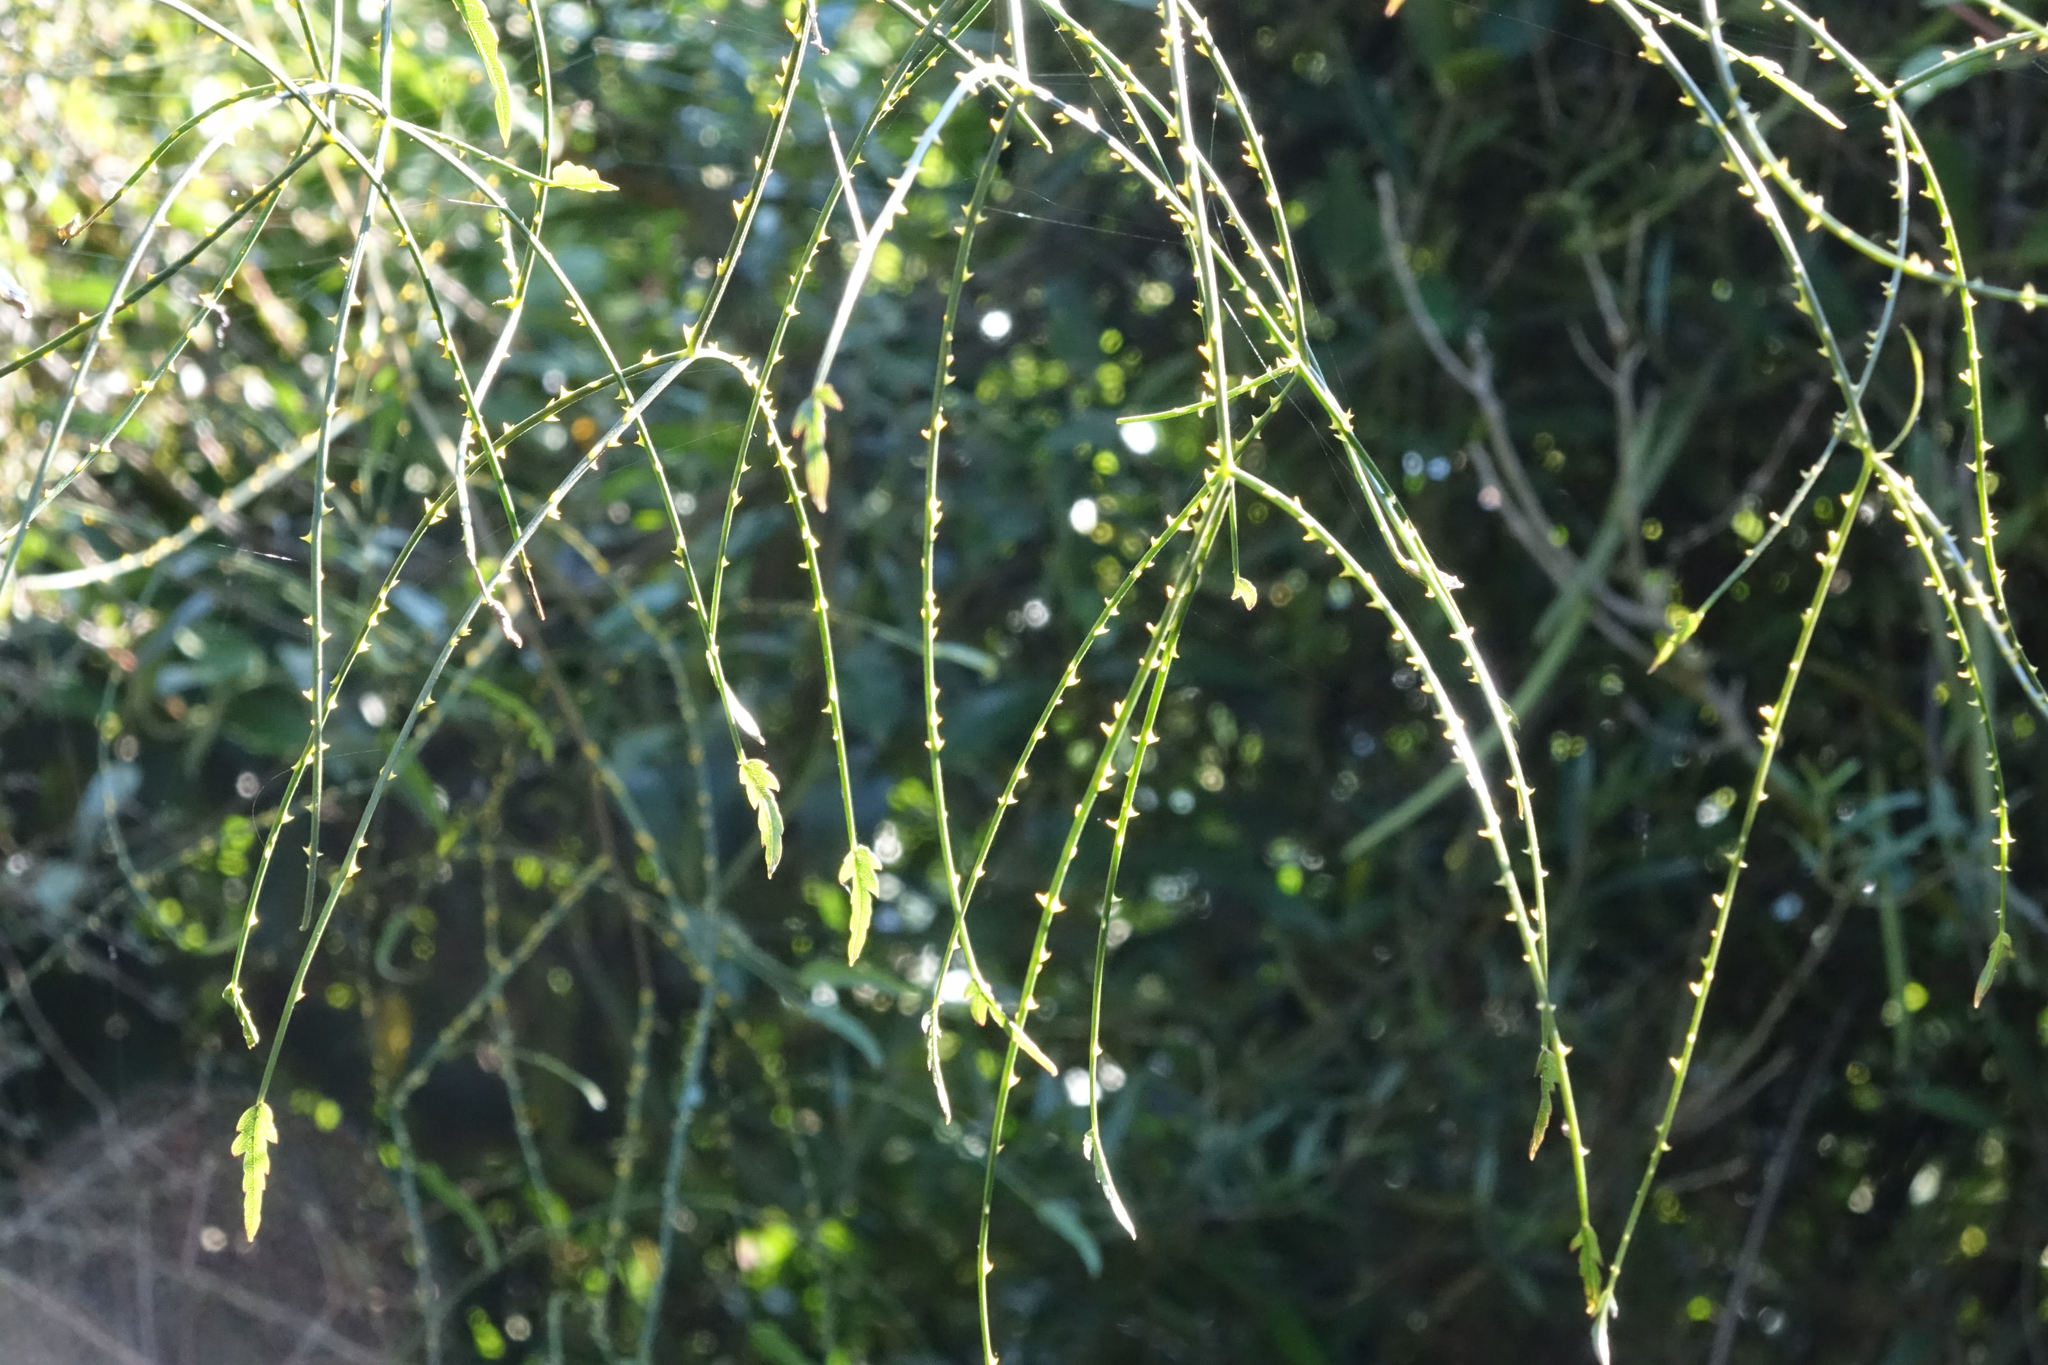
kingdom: Plantae
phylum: Tracheophyta
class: Magnoliopsida
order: Rosales
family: Rosaceae
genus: Rubus
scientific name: Rubus squarrosus
